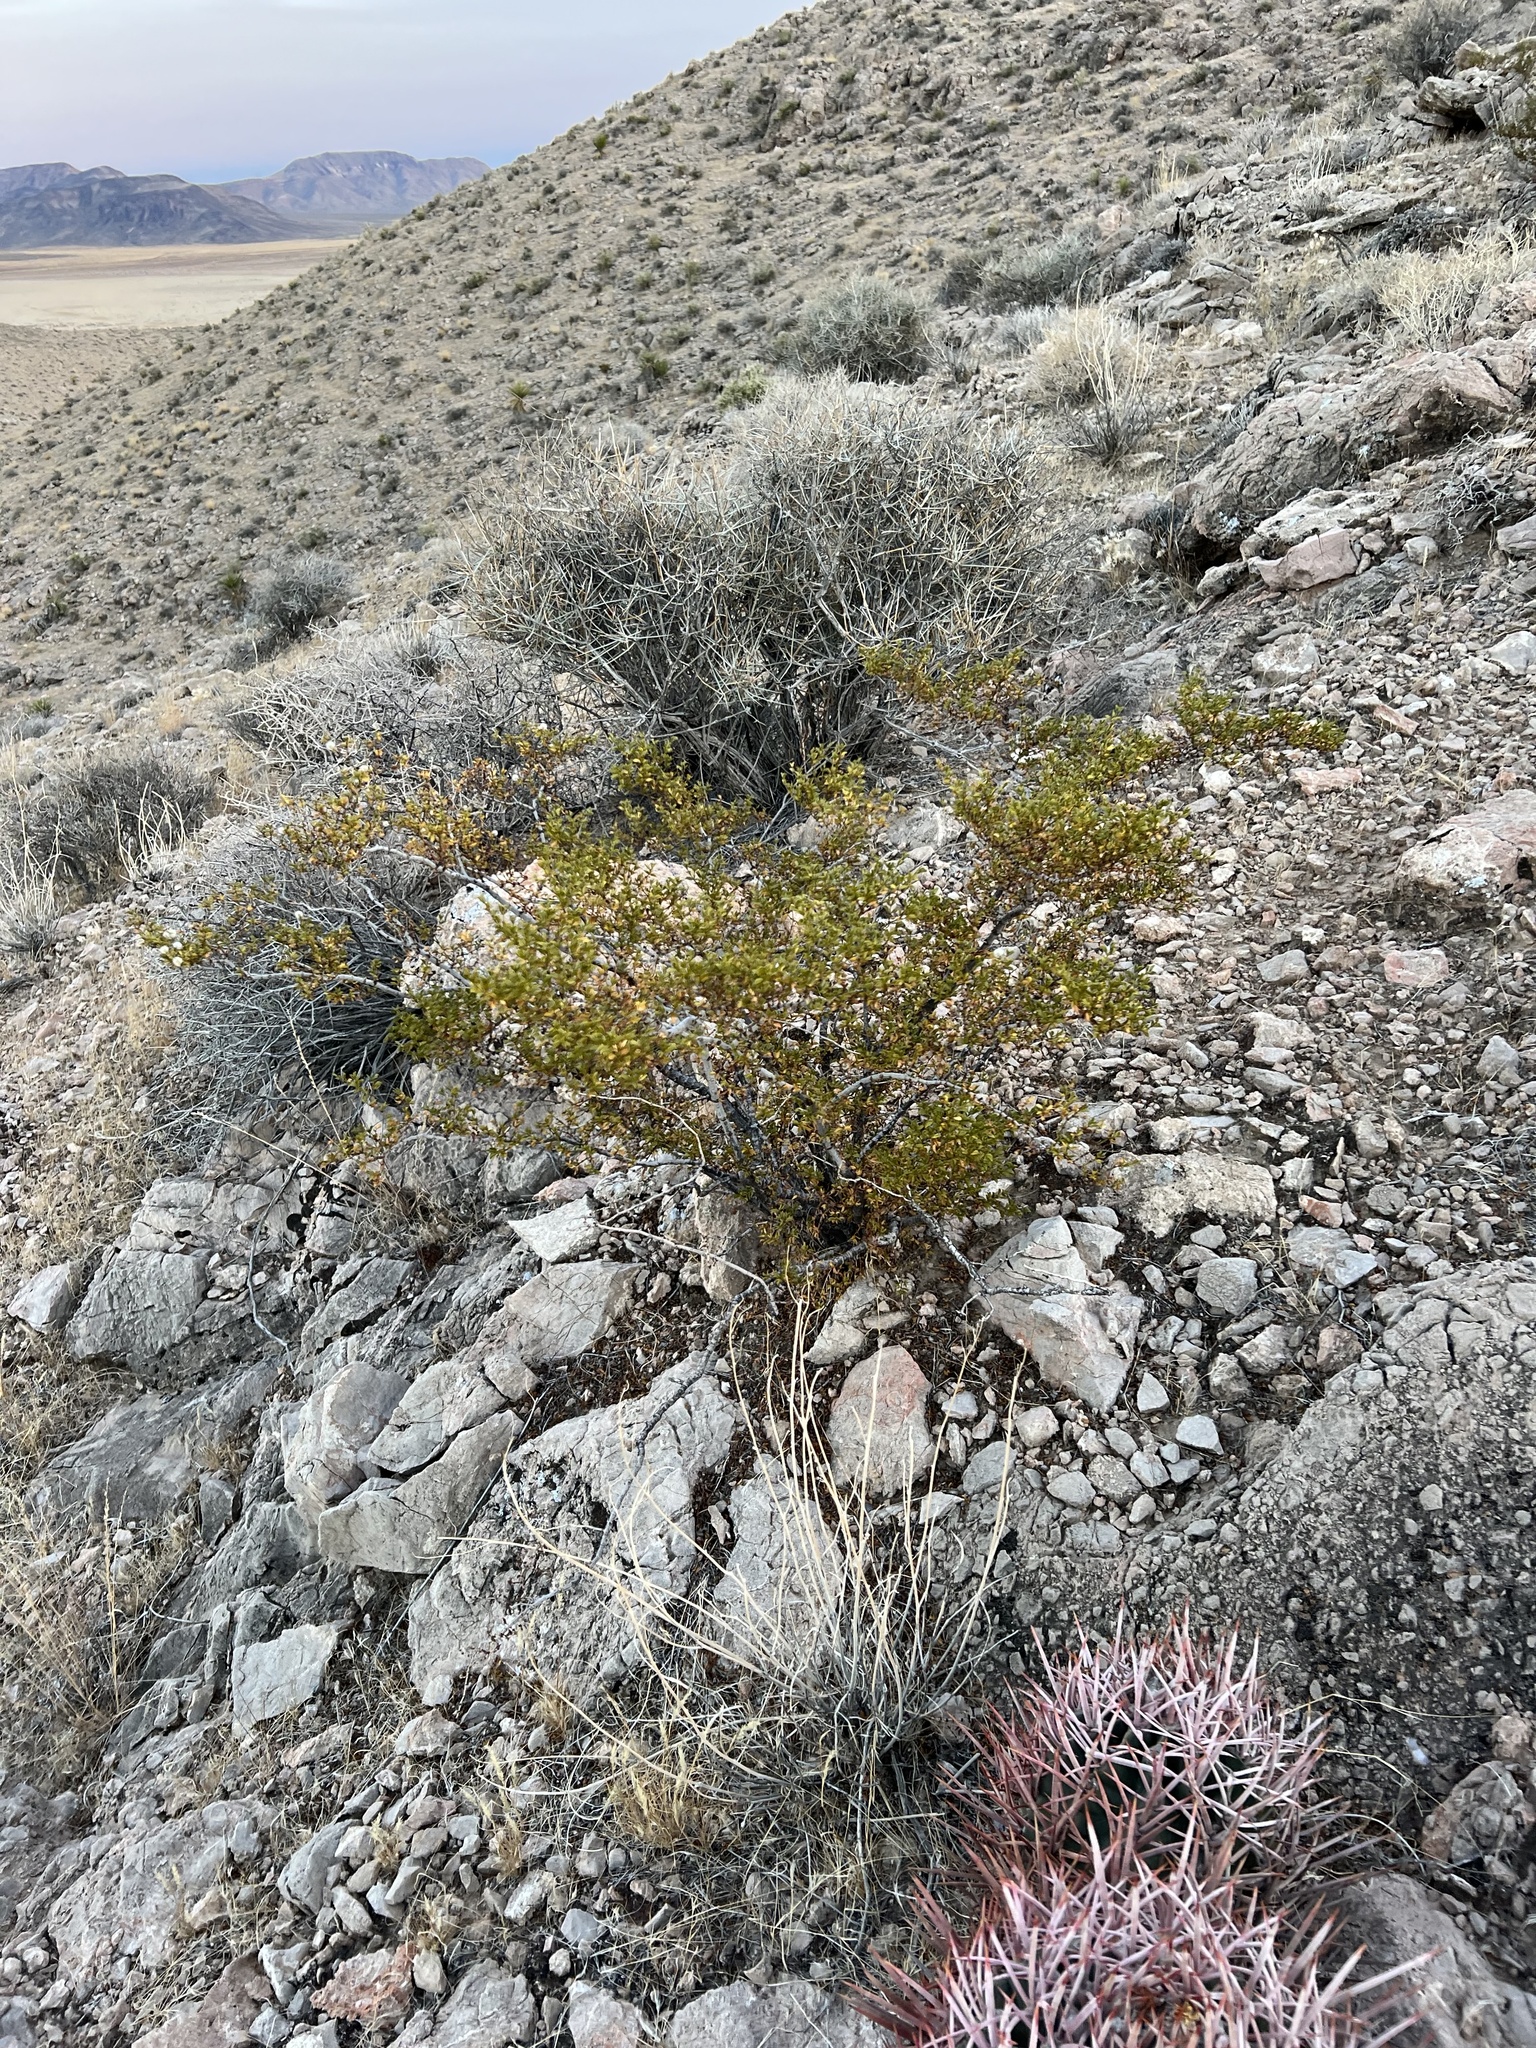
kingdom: Plantae
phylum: Tracheophyta
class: Magnoliopsida
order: Zygophyllales
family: Zygophyllaceae
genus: Larrea
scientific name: Larrea tridentata
